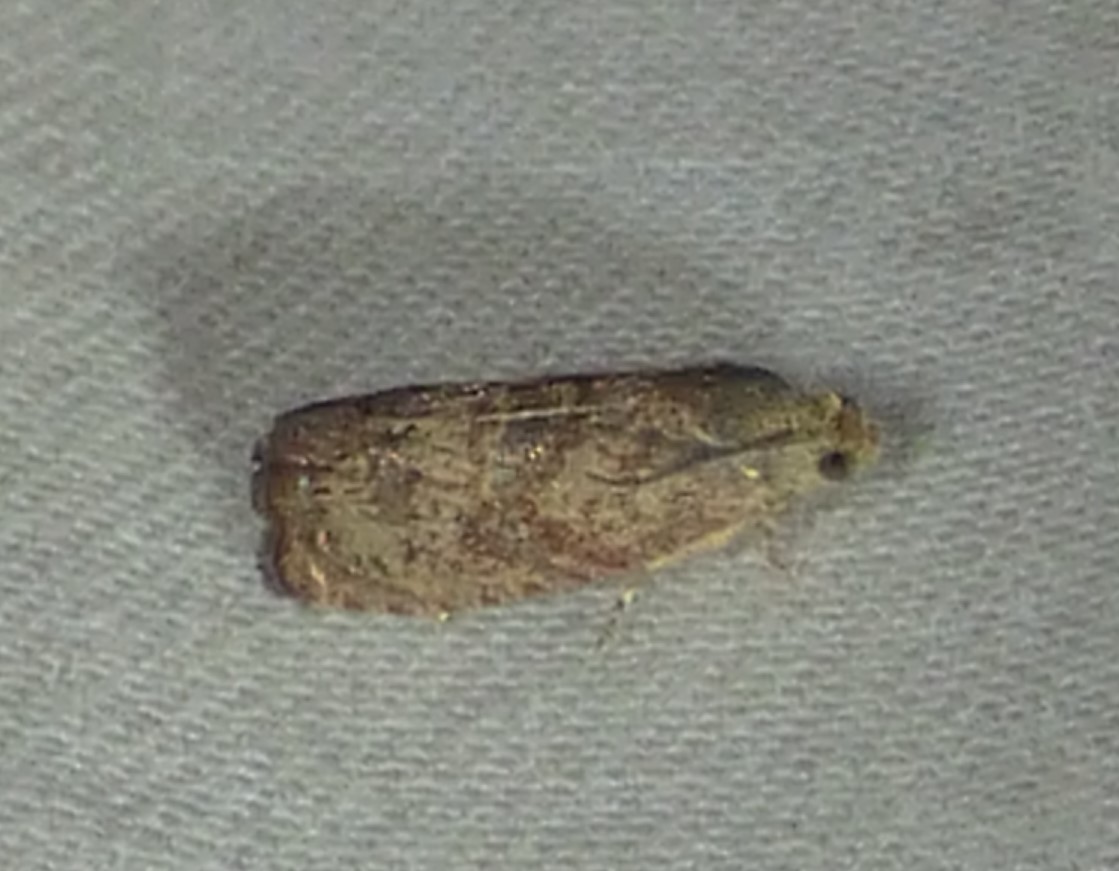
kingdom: Animalia
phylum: Arthropoda
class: Insecta
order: Lepidoptera
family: Tortricidae
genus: Cydia
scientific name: Cydia latiferreana
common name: Filbertworm moth
